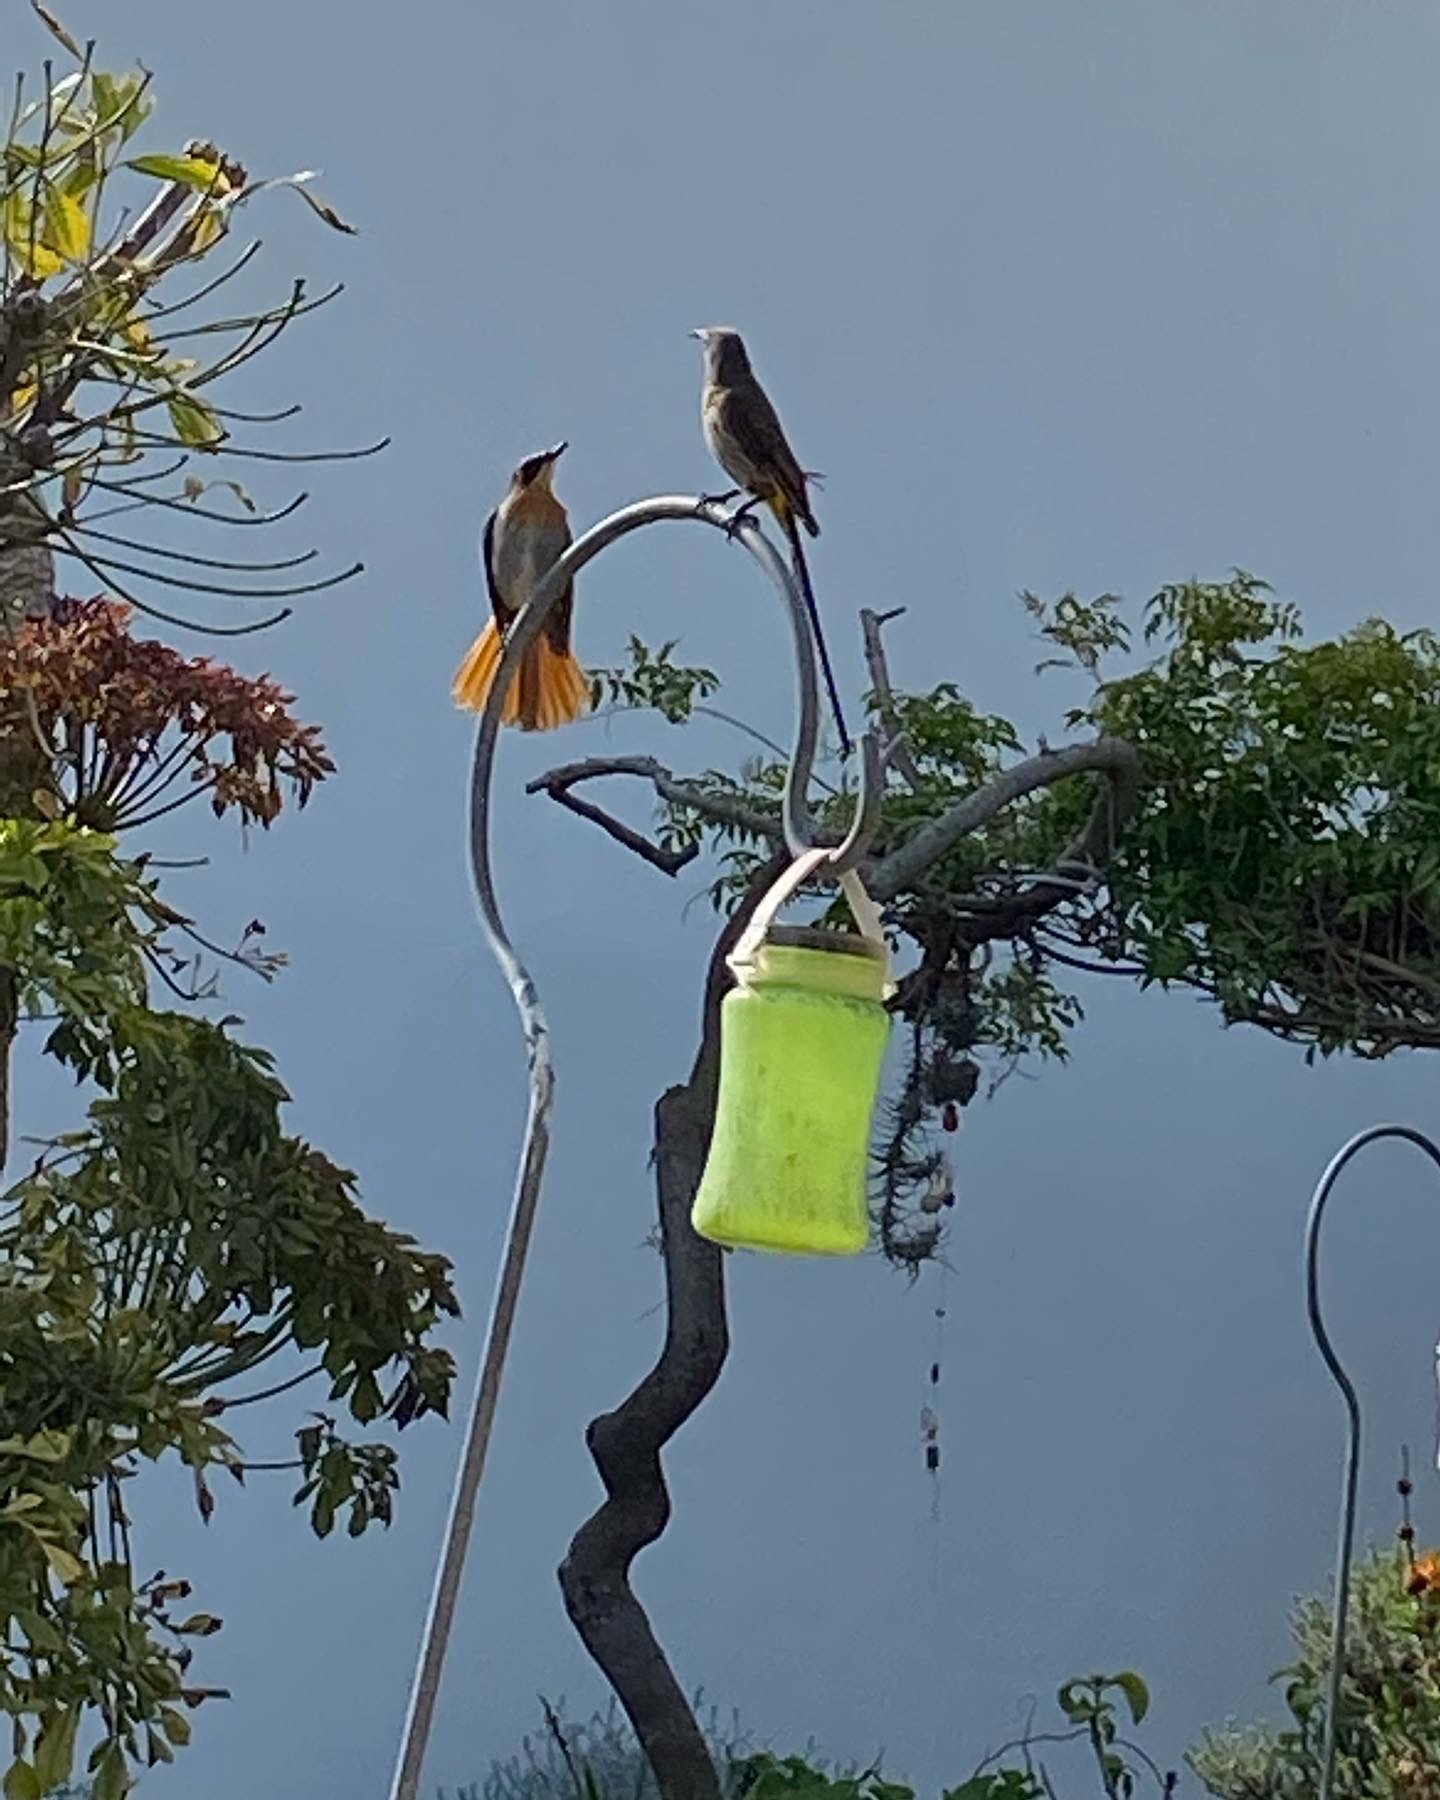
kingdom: Animalia
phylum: Chordata
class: Aves
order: Passeriformes
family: Promeropidae
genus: Promerops
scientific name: Promerops cafer
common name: Cape sugarbird
